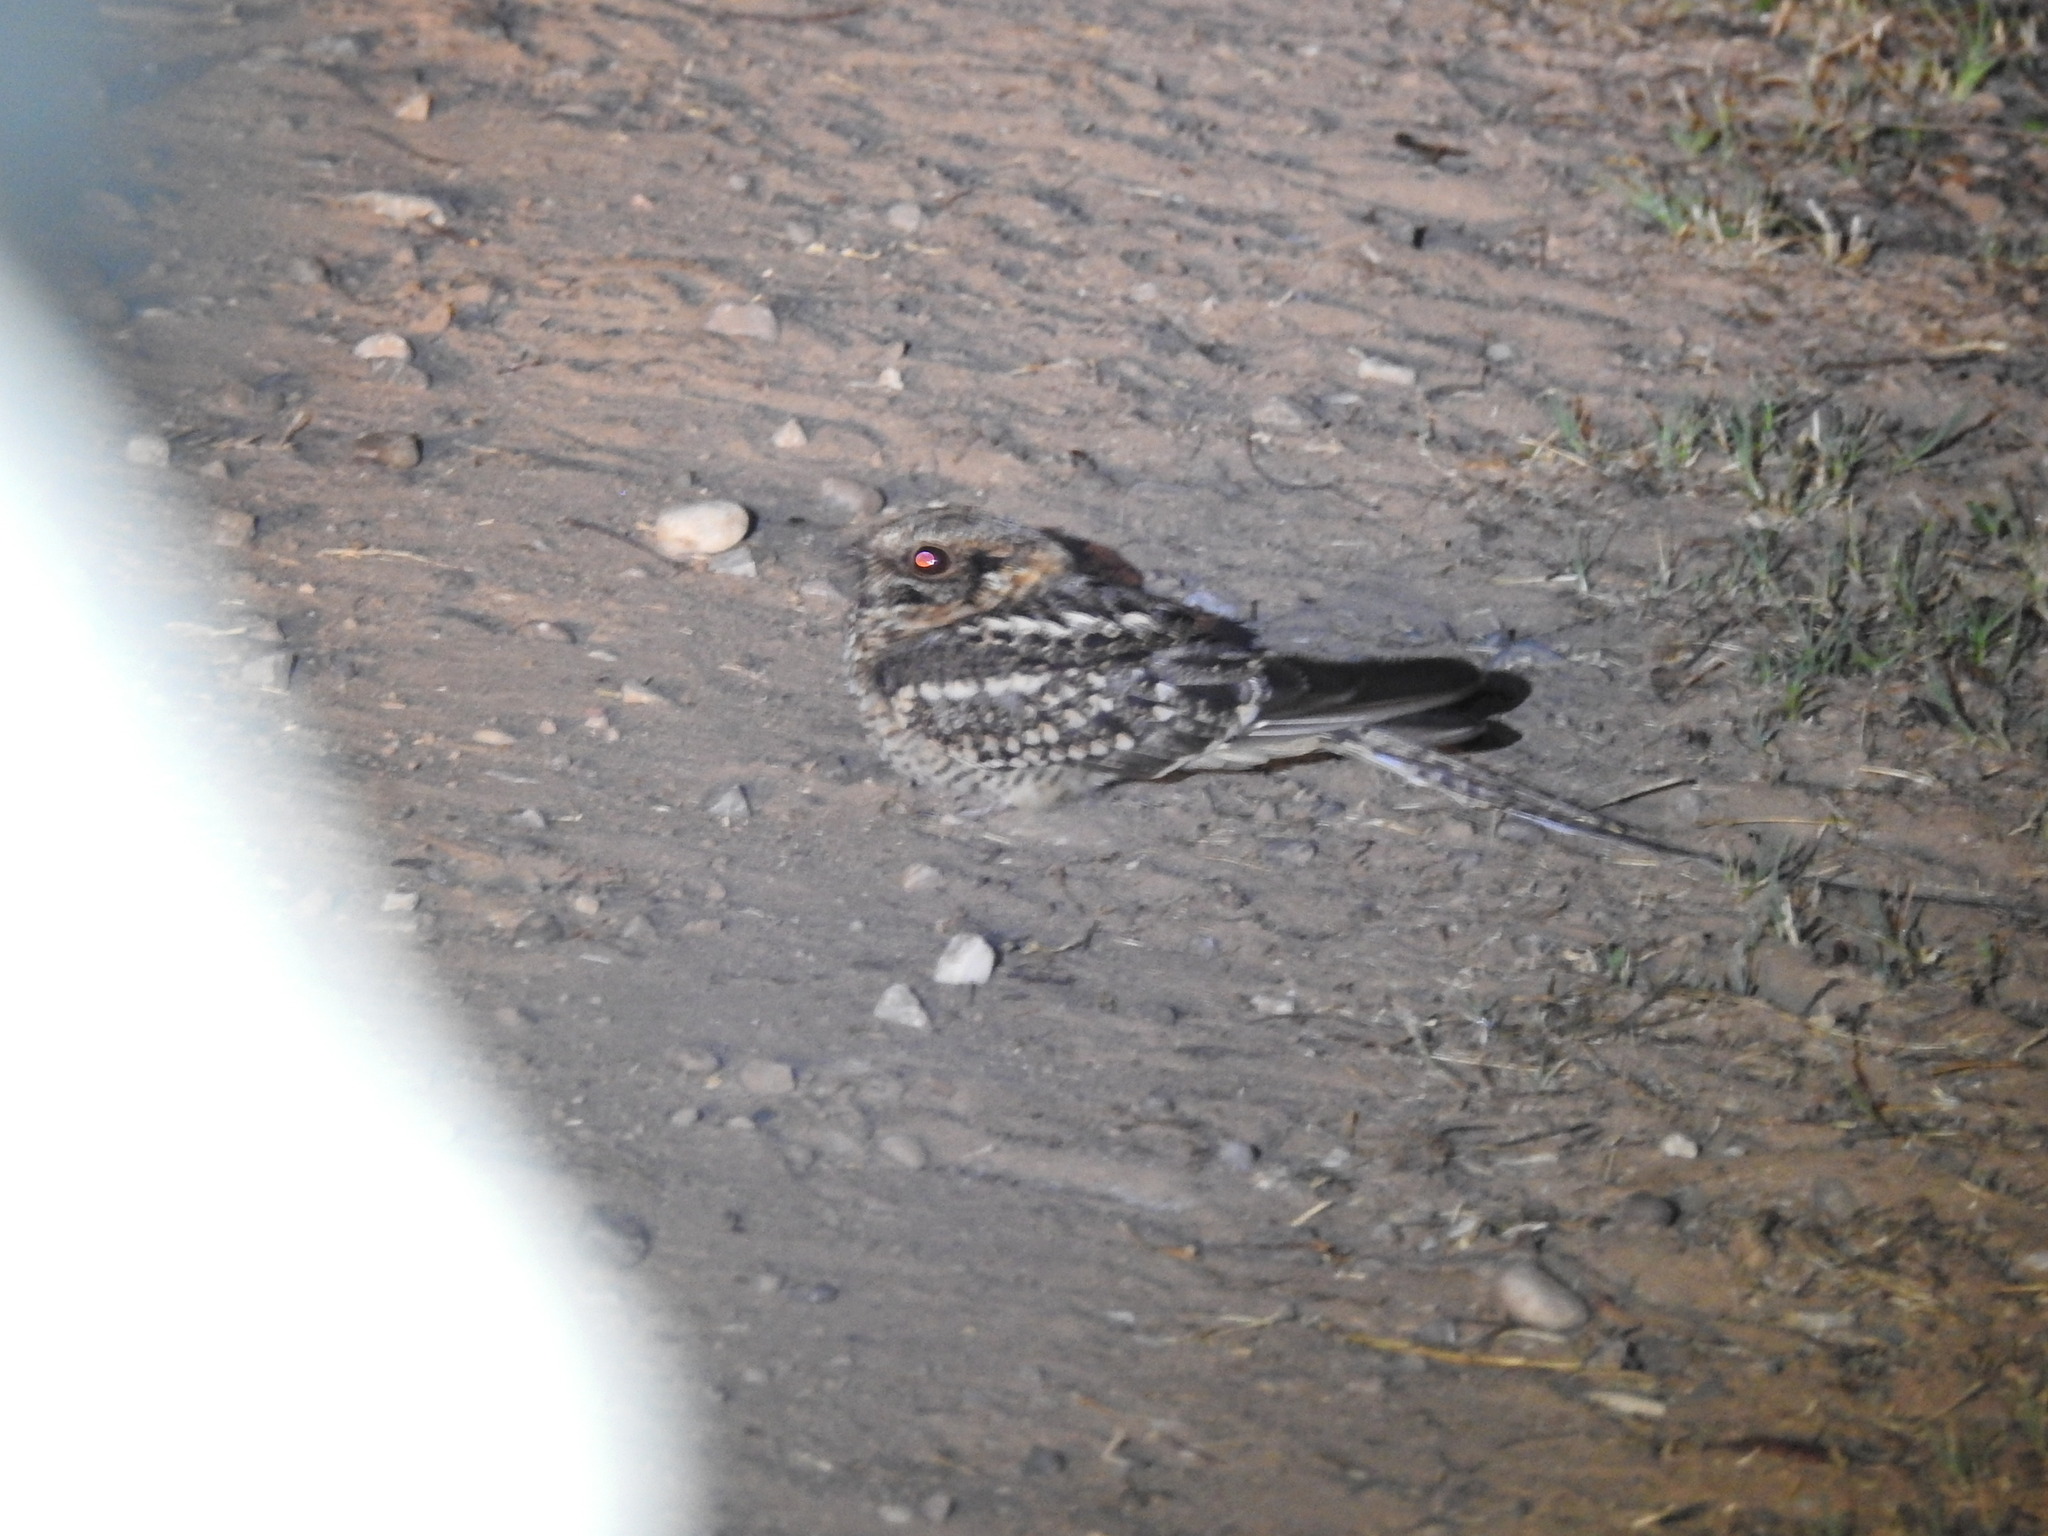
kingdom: Animalia
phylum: Chordata
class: Aves
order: Caprimulgiformes
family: Caprimulgidae
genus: Hydropsalis
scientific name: Hydropsalis torquata
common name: Scissor-tailed nightjar
